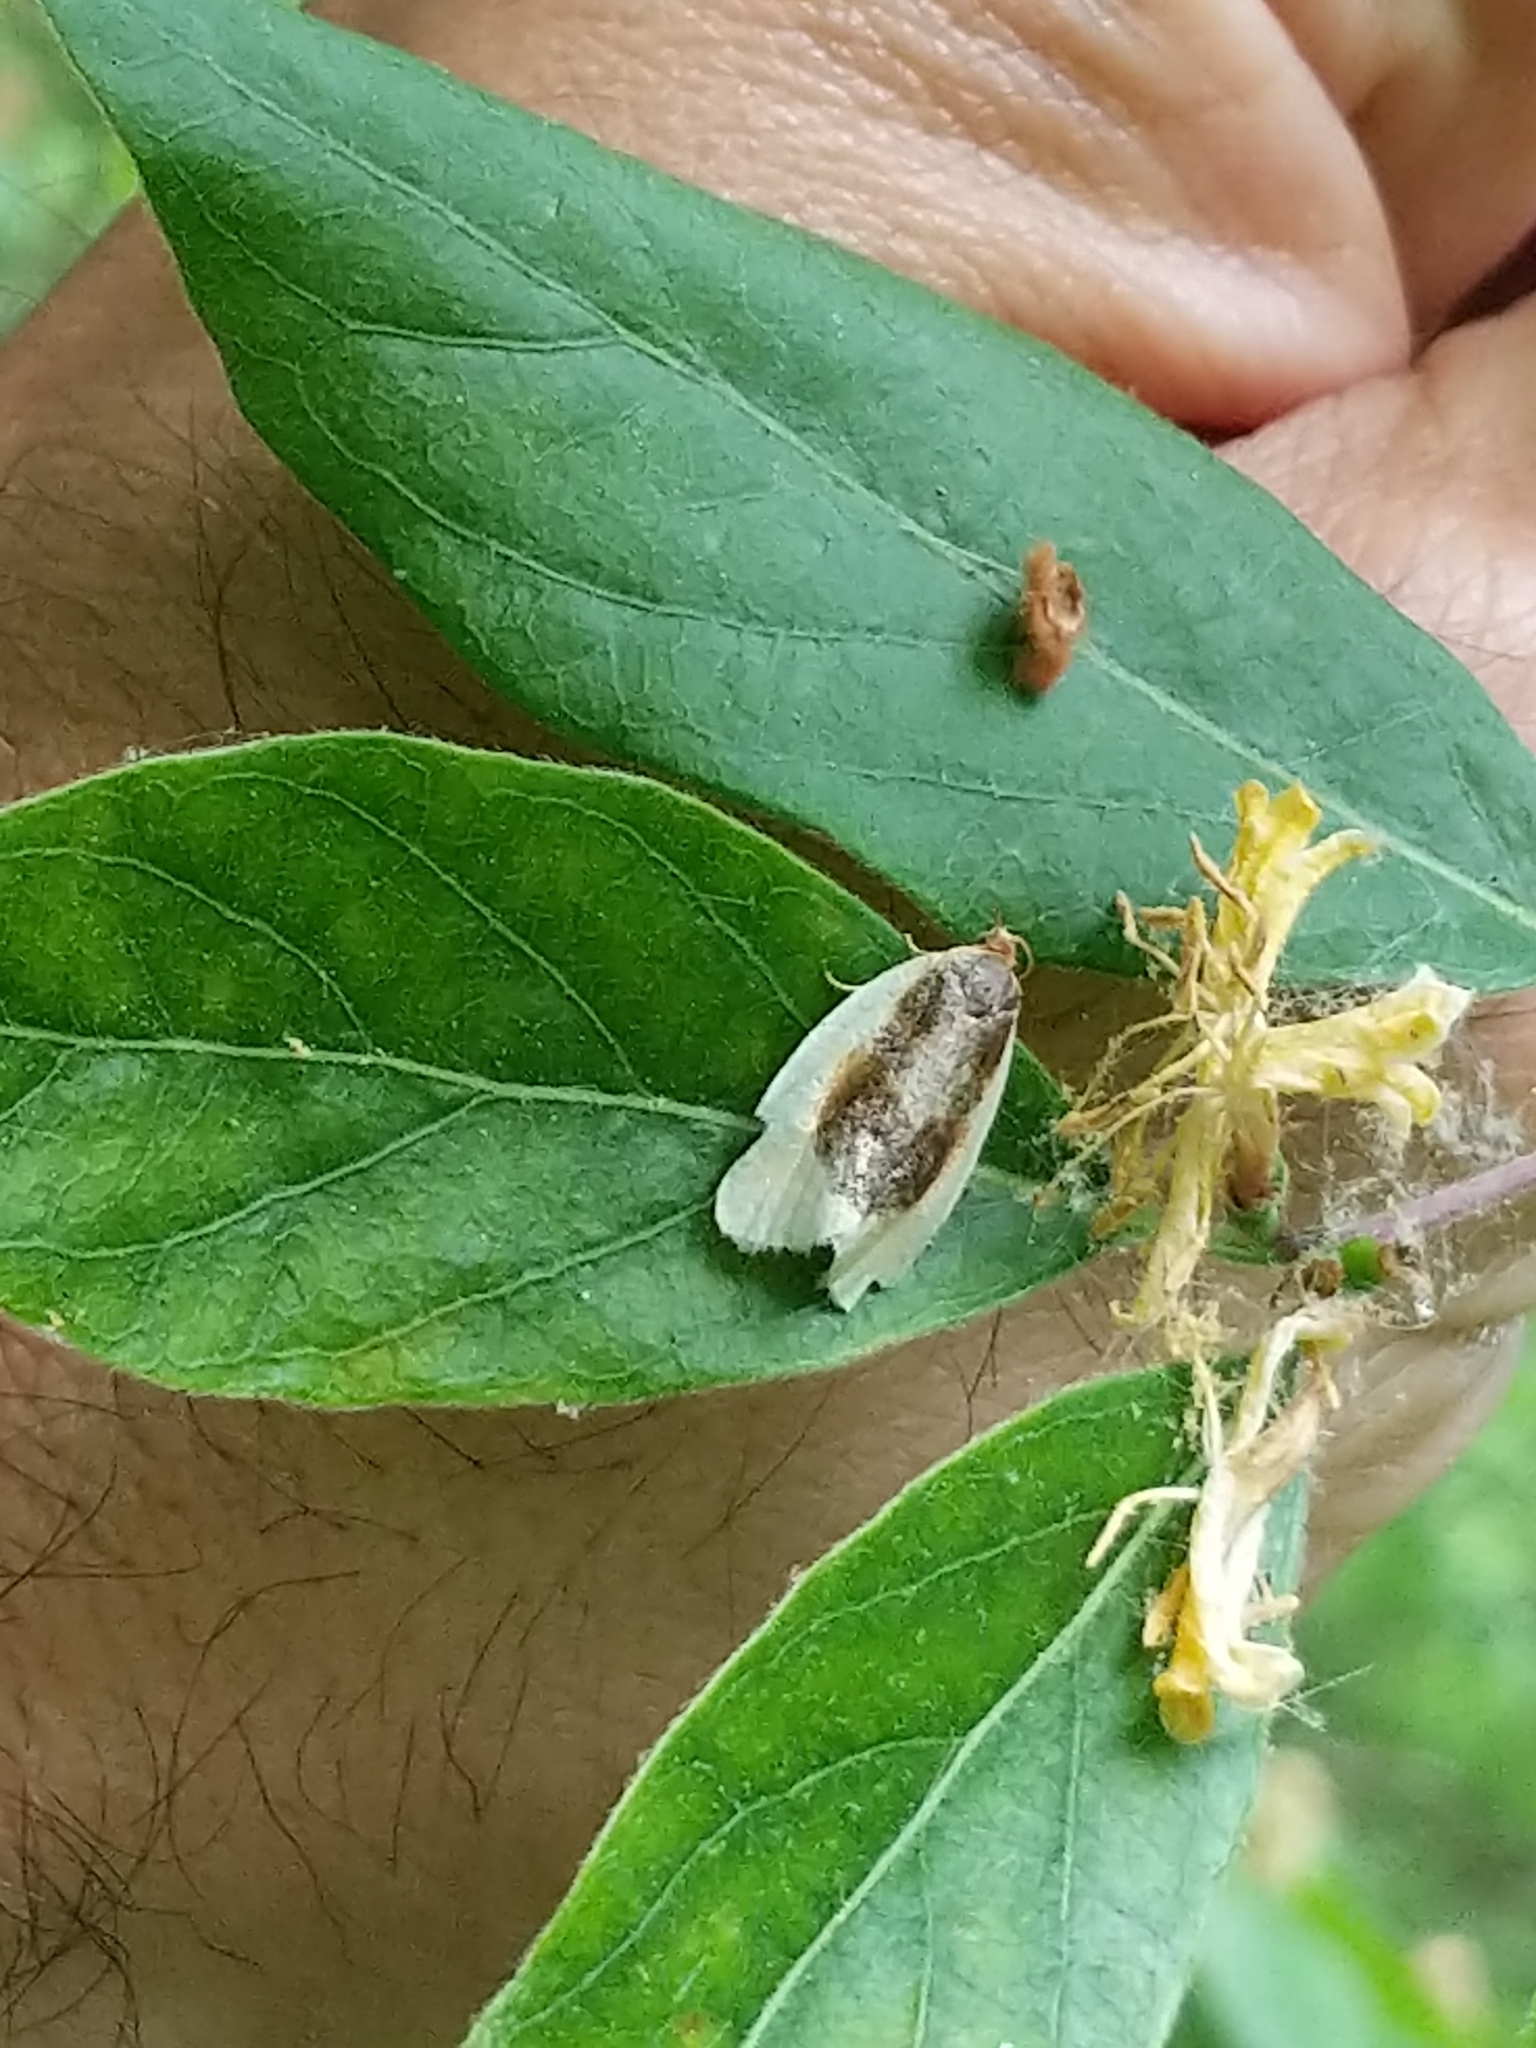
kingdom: Animalia
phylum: Arthropoda
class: Insecta
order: Lepidoptera
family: Tortricidae
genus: Clepsis
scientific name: Clepsis melaleucanus
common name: American apple tortrix
